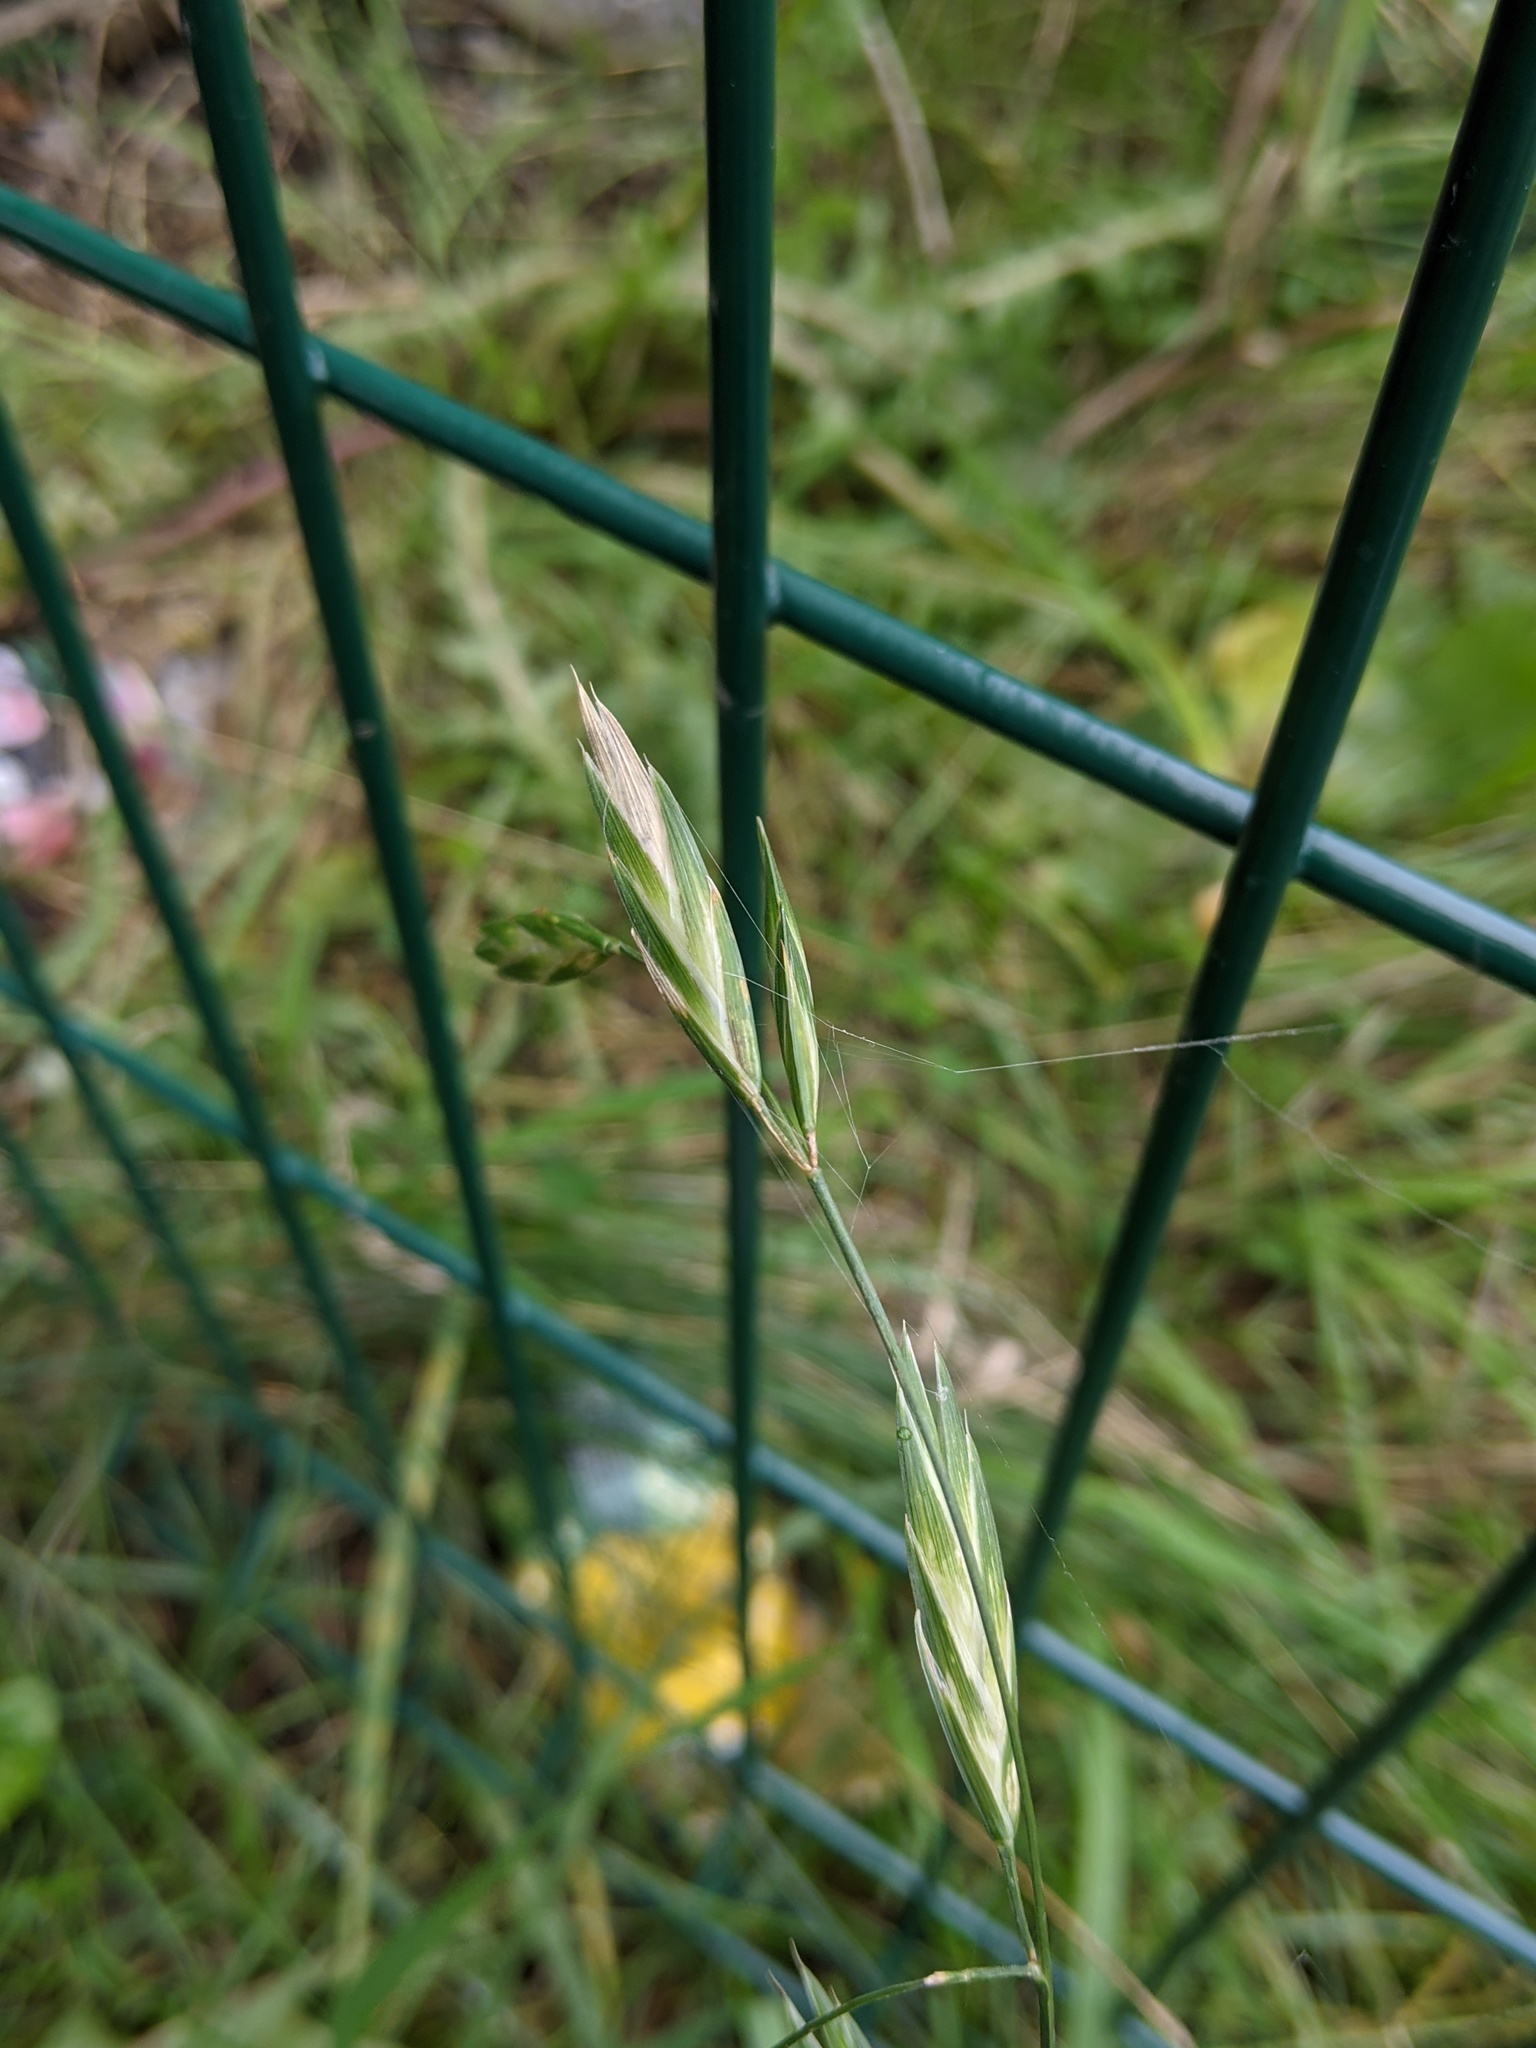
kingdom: Plantae
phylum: Tracheophyta
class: Liliopsida
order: Poales
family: Poaceae
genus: Bromus
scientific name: Bromus carinatus
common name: Mountain brome
